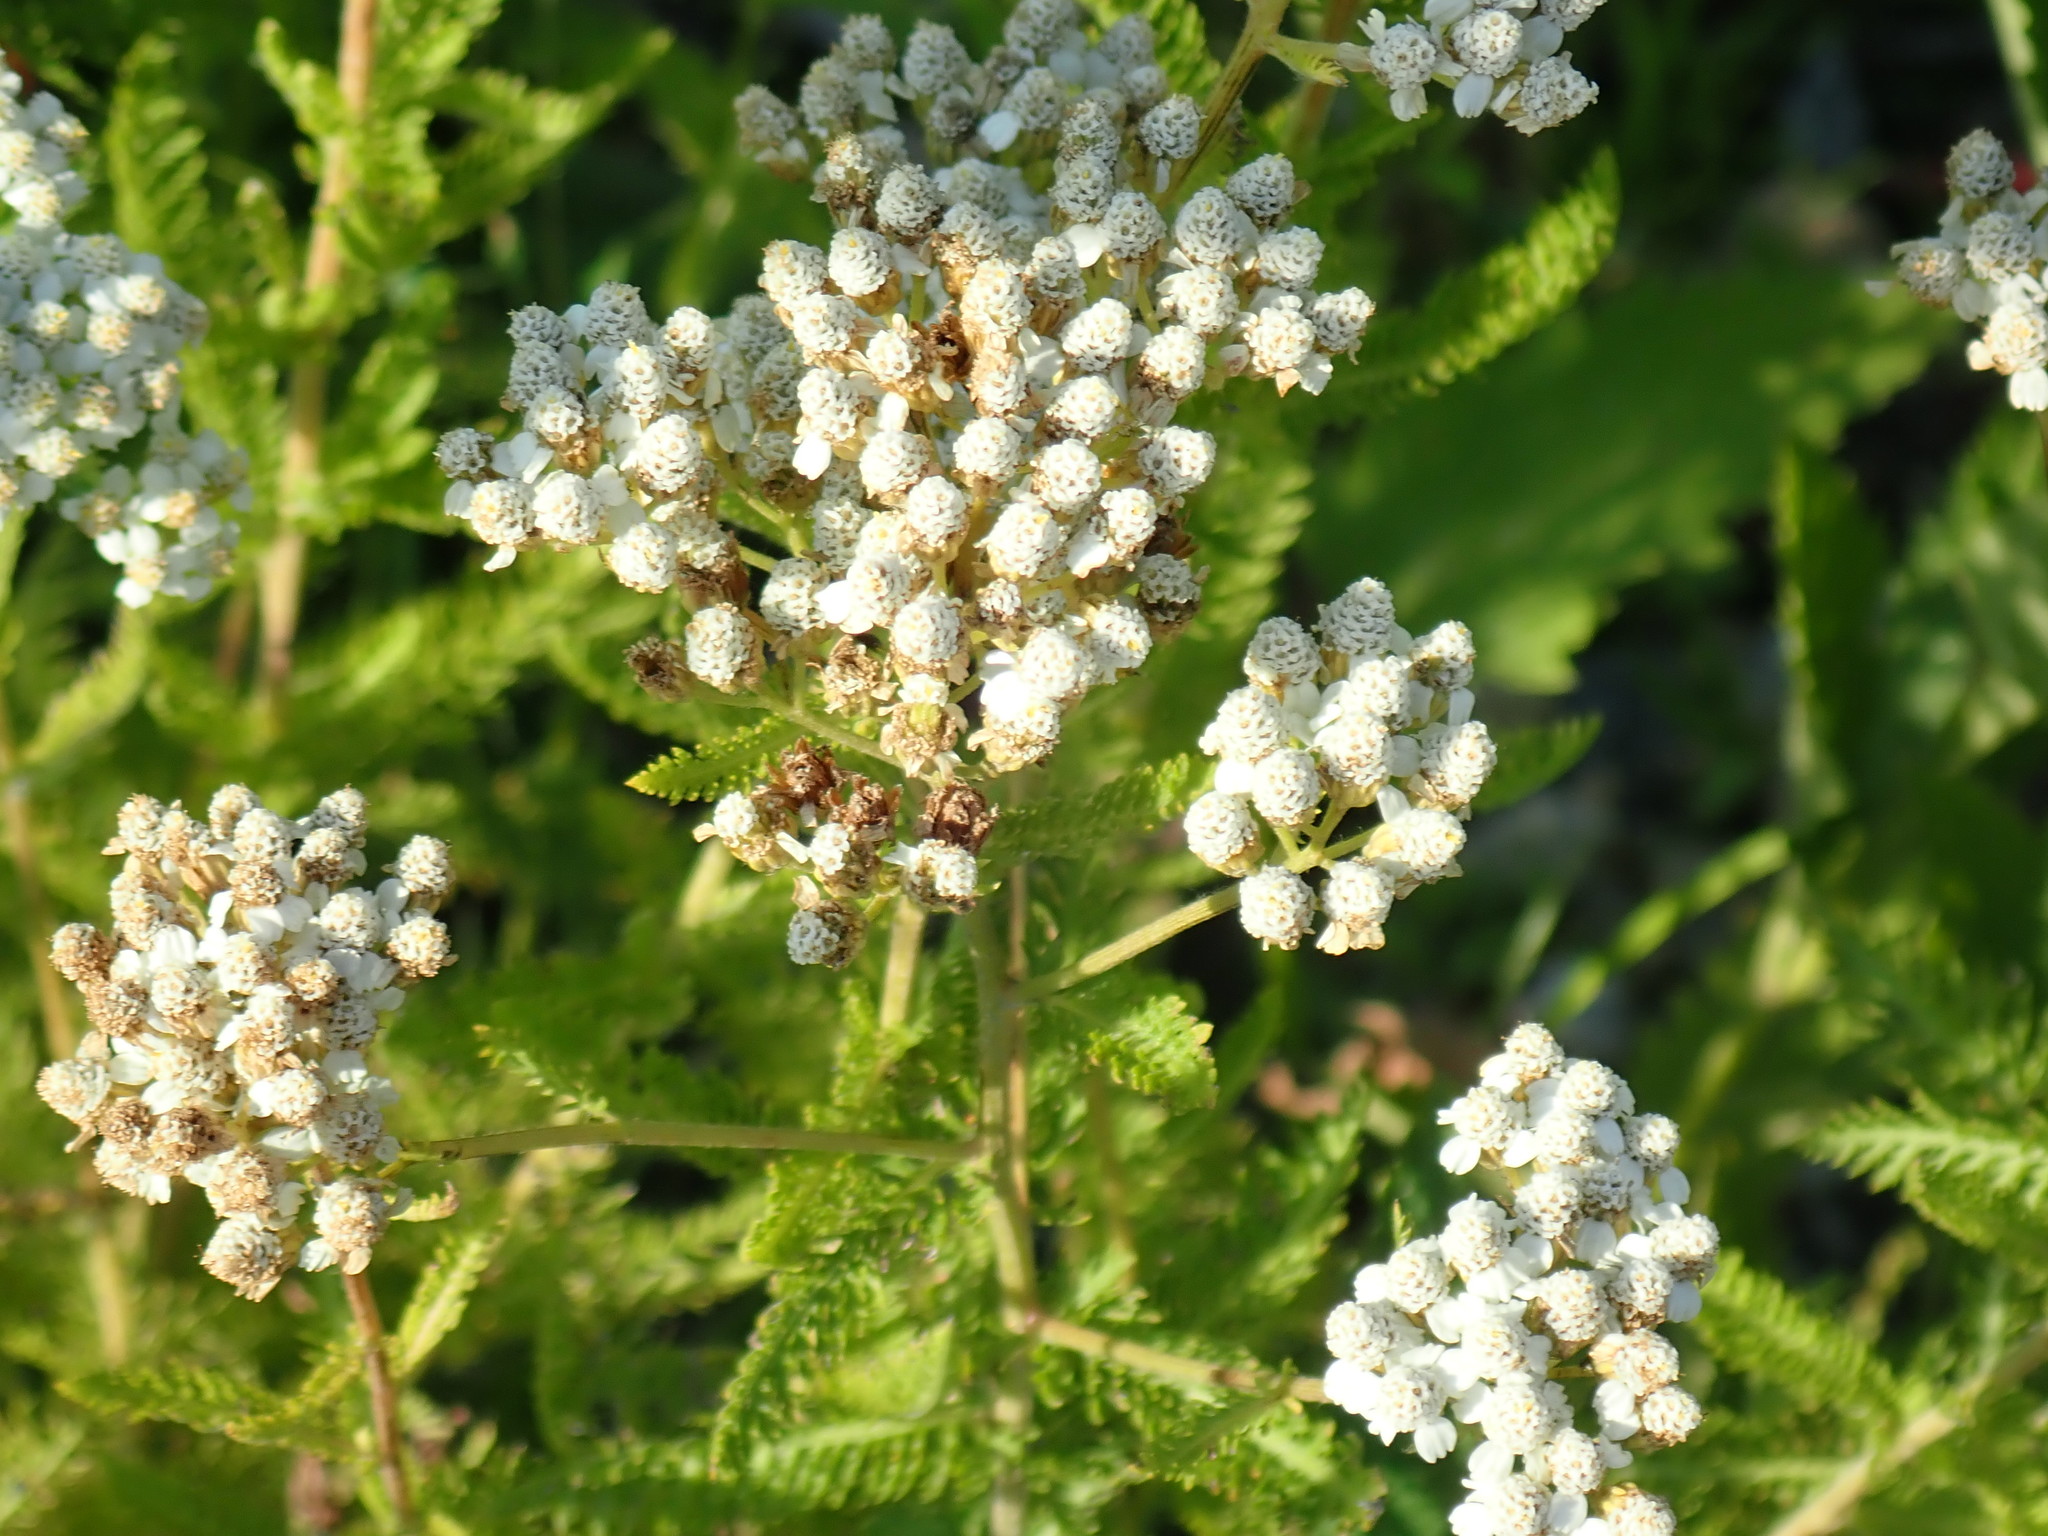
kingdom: Plantae
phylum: Tracheophyta
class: Magnoliopsida
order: Asterales
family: Asteraceae
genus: Achillea
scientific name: Achillea millefolium
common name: Yarrow
